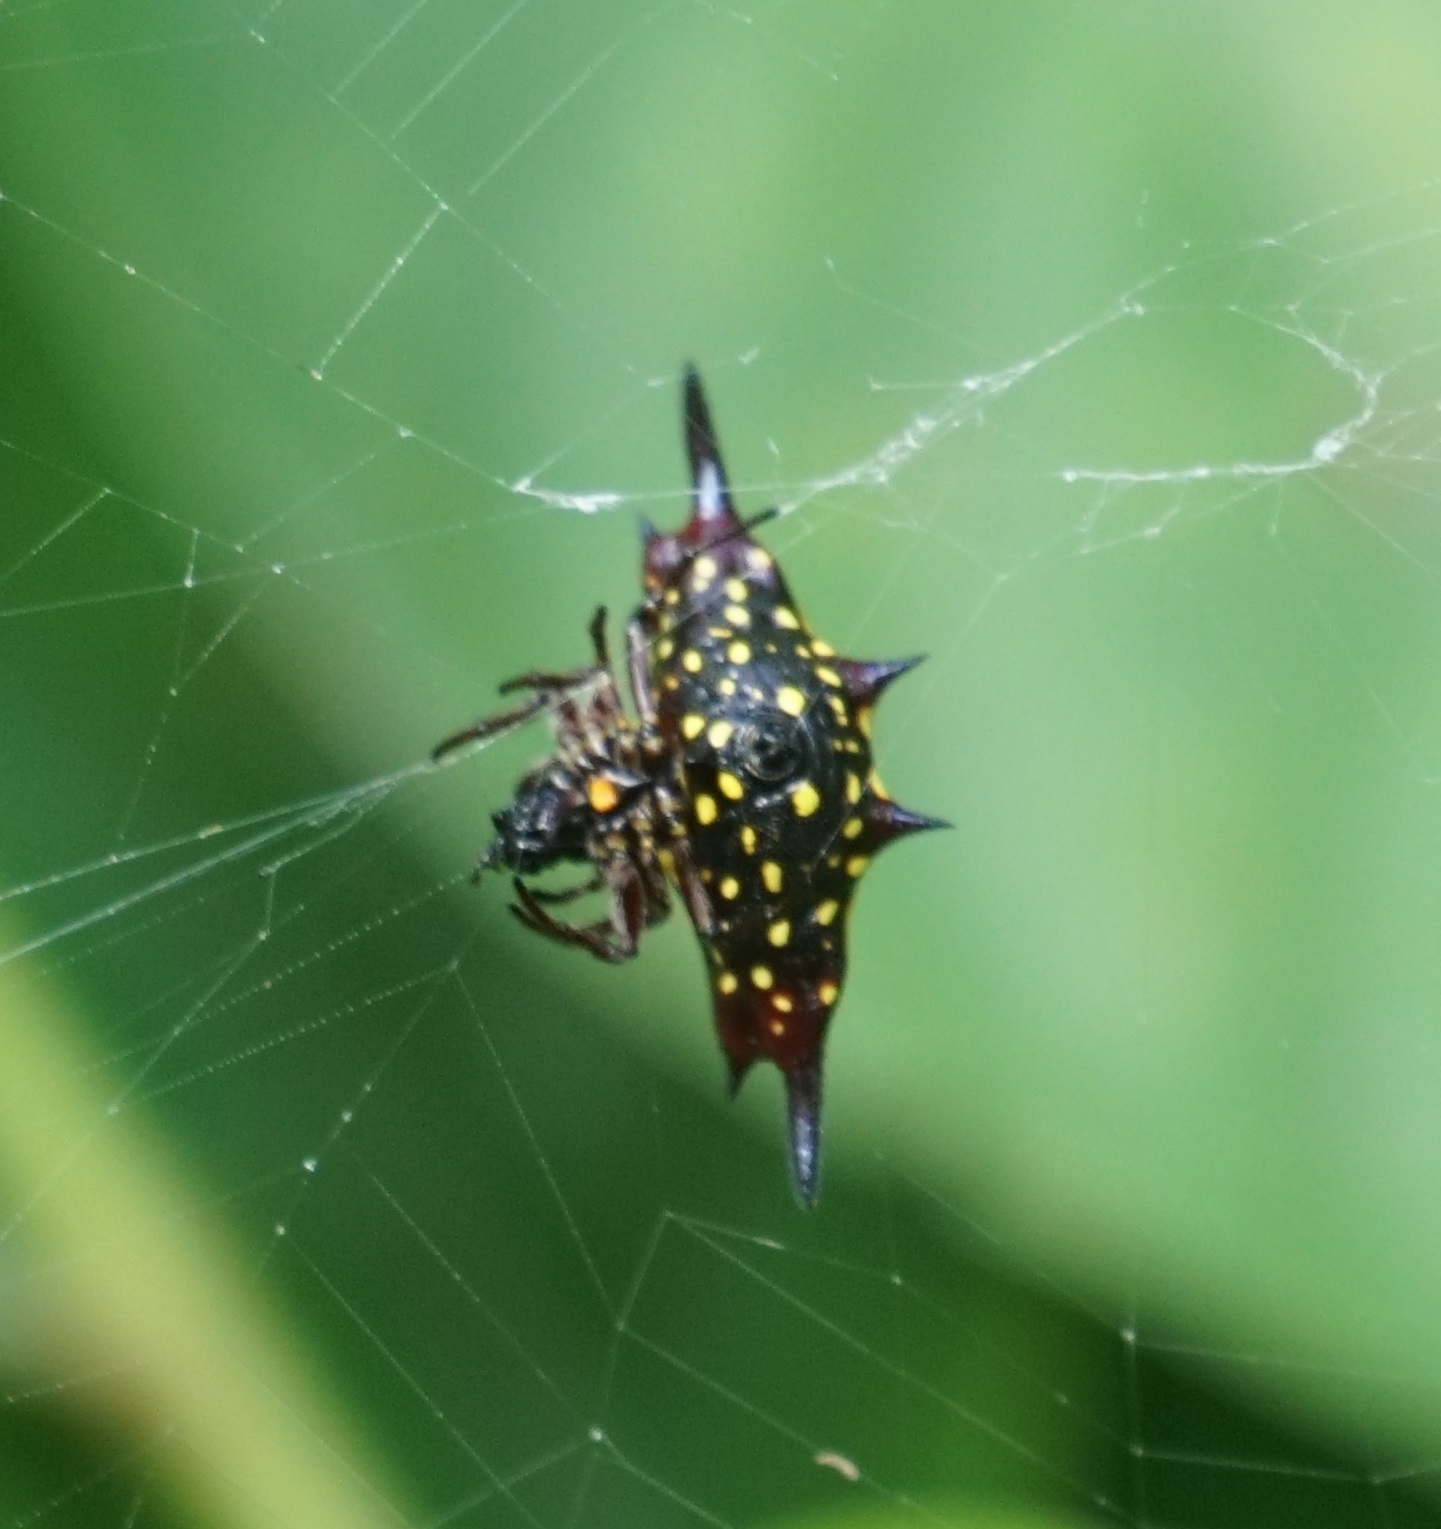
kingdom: Animalia
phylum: Arthropoda
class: Arachnida
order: Araneae
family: Araneidae
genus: Gasteracantha
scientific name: Gasteracantha fornicata
